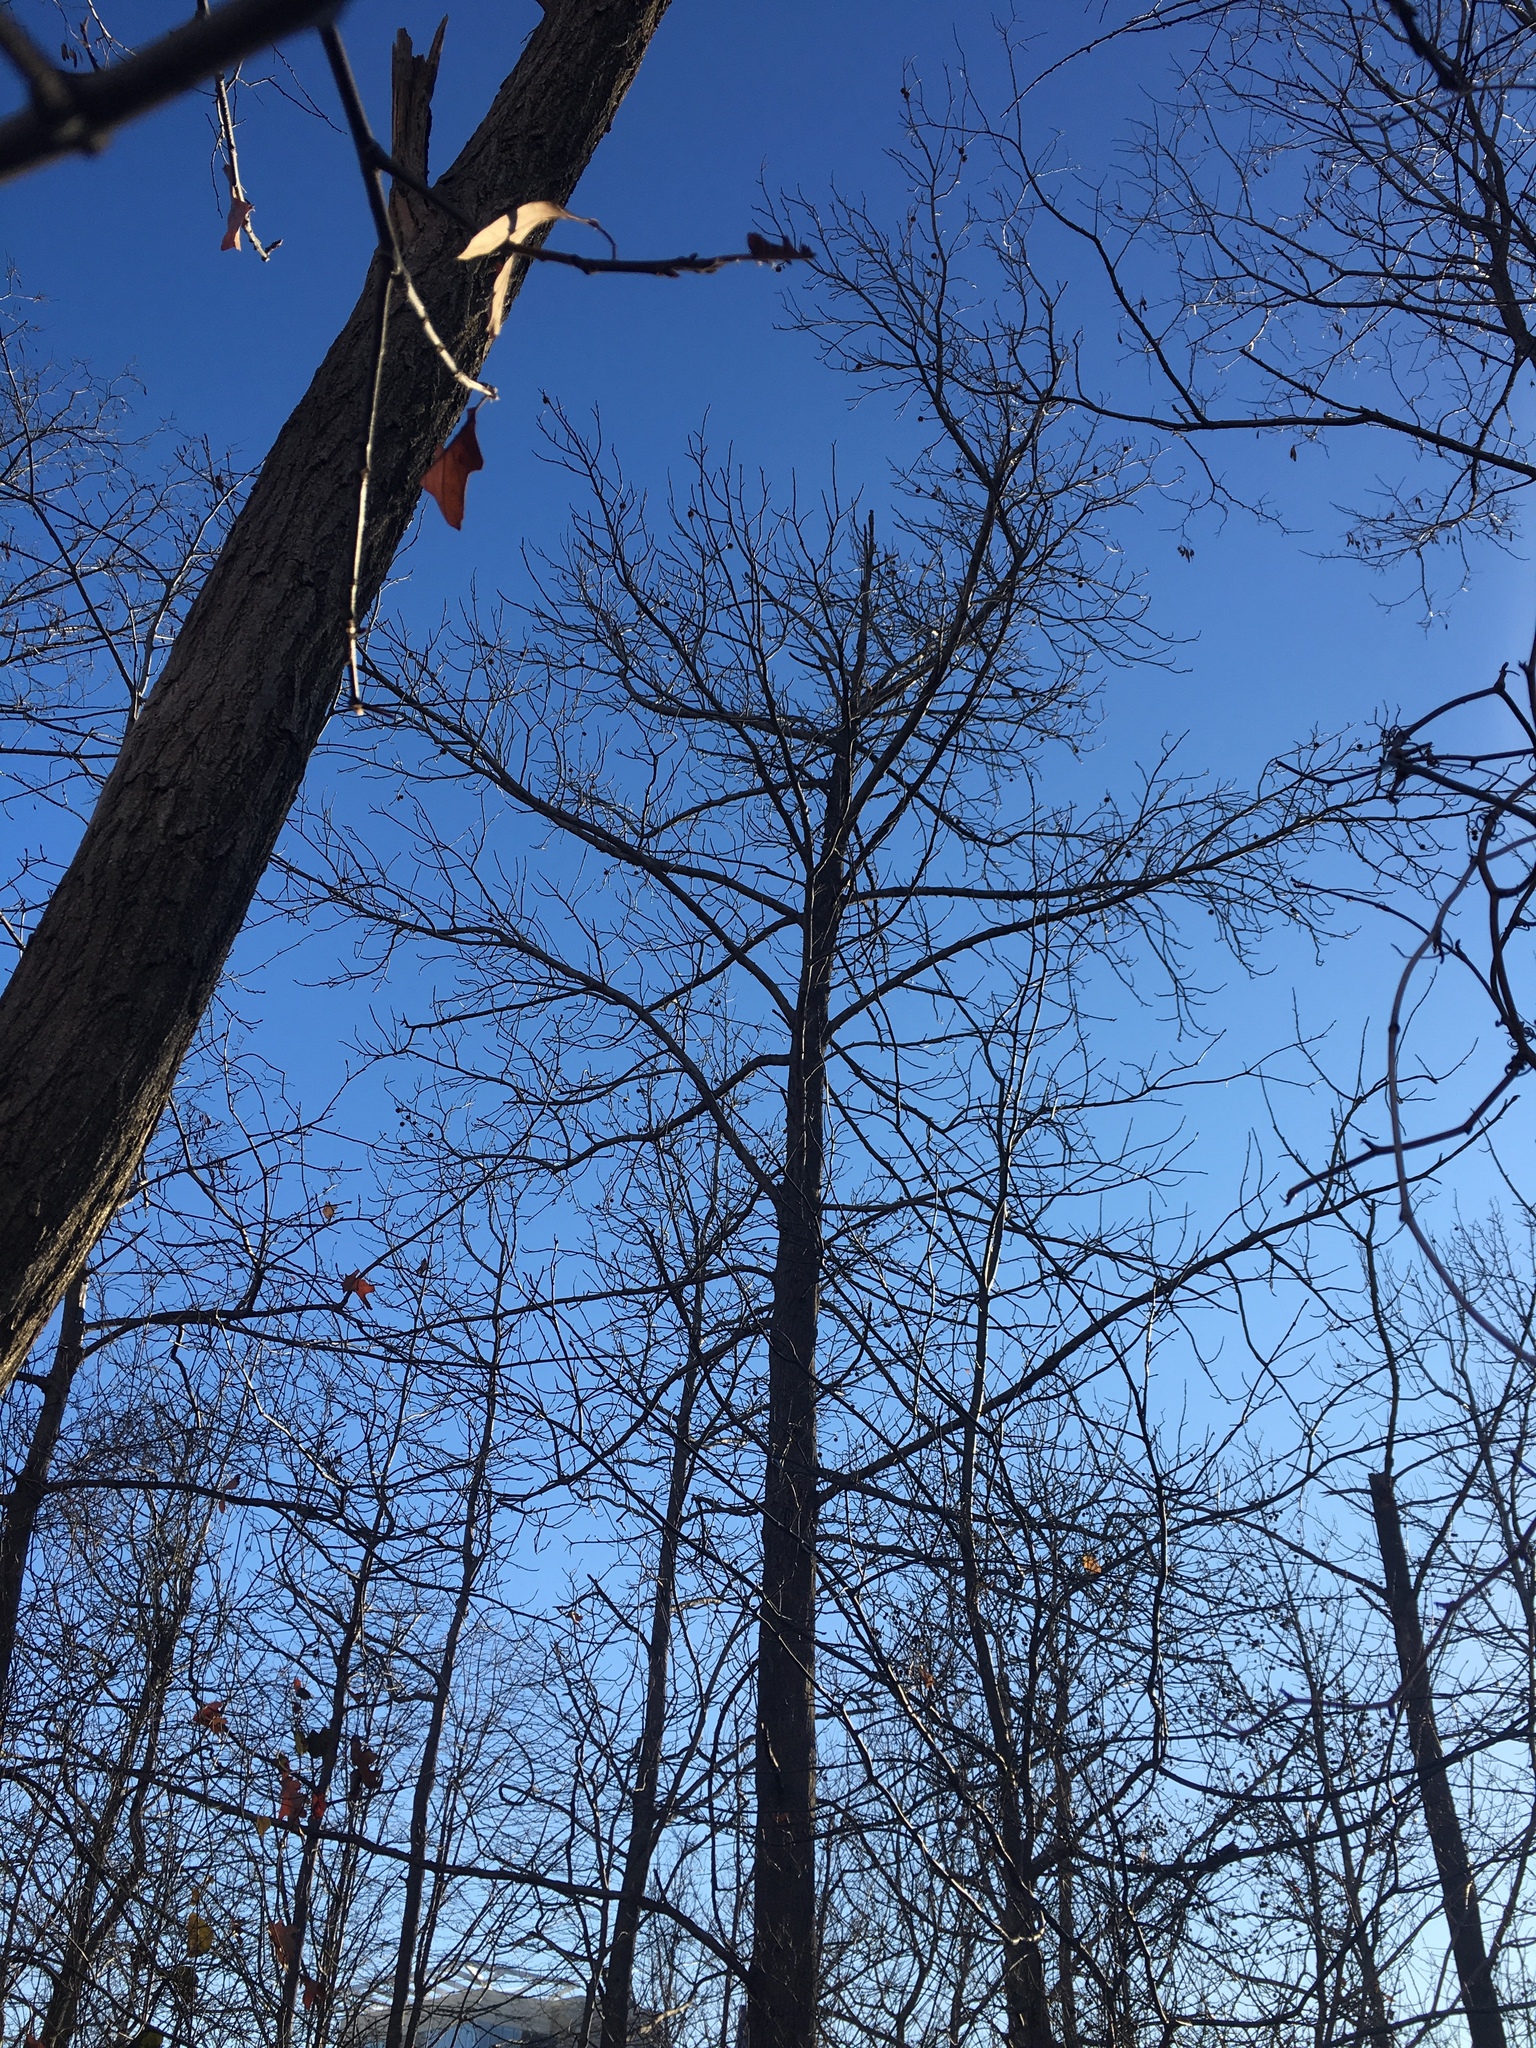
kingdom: Plantae
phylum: Tracheophyta
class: Magnoliopsida
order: Saxifragales
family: Altingiaceae
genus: Liquidambar
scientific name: Liquidambar styraciflua
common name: Sweet gum
